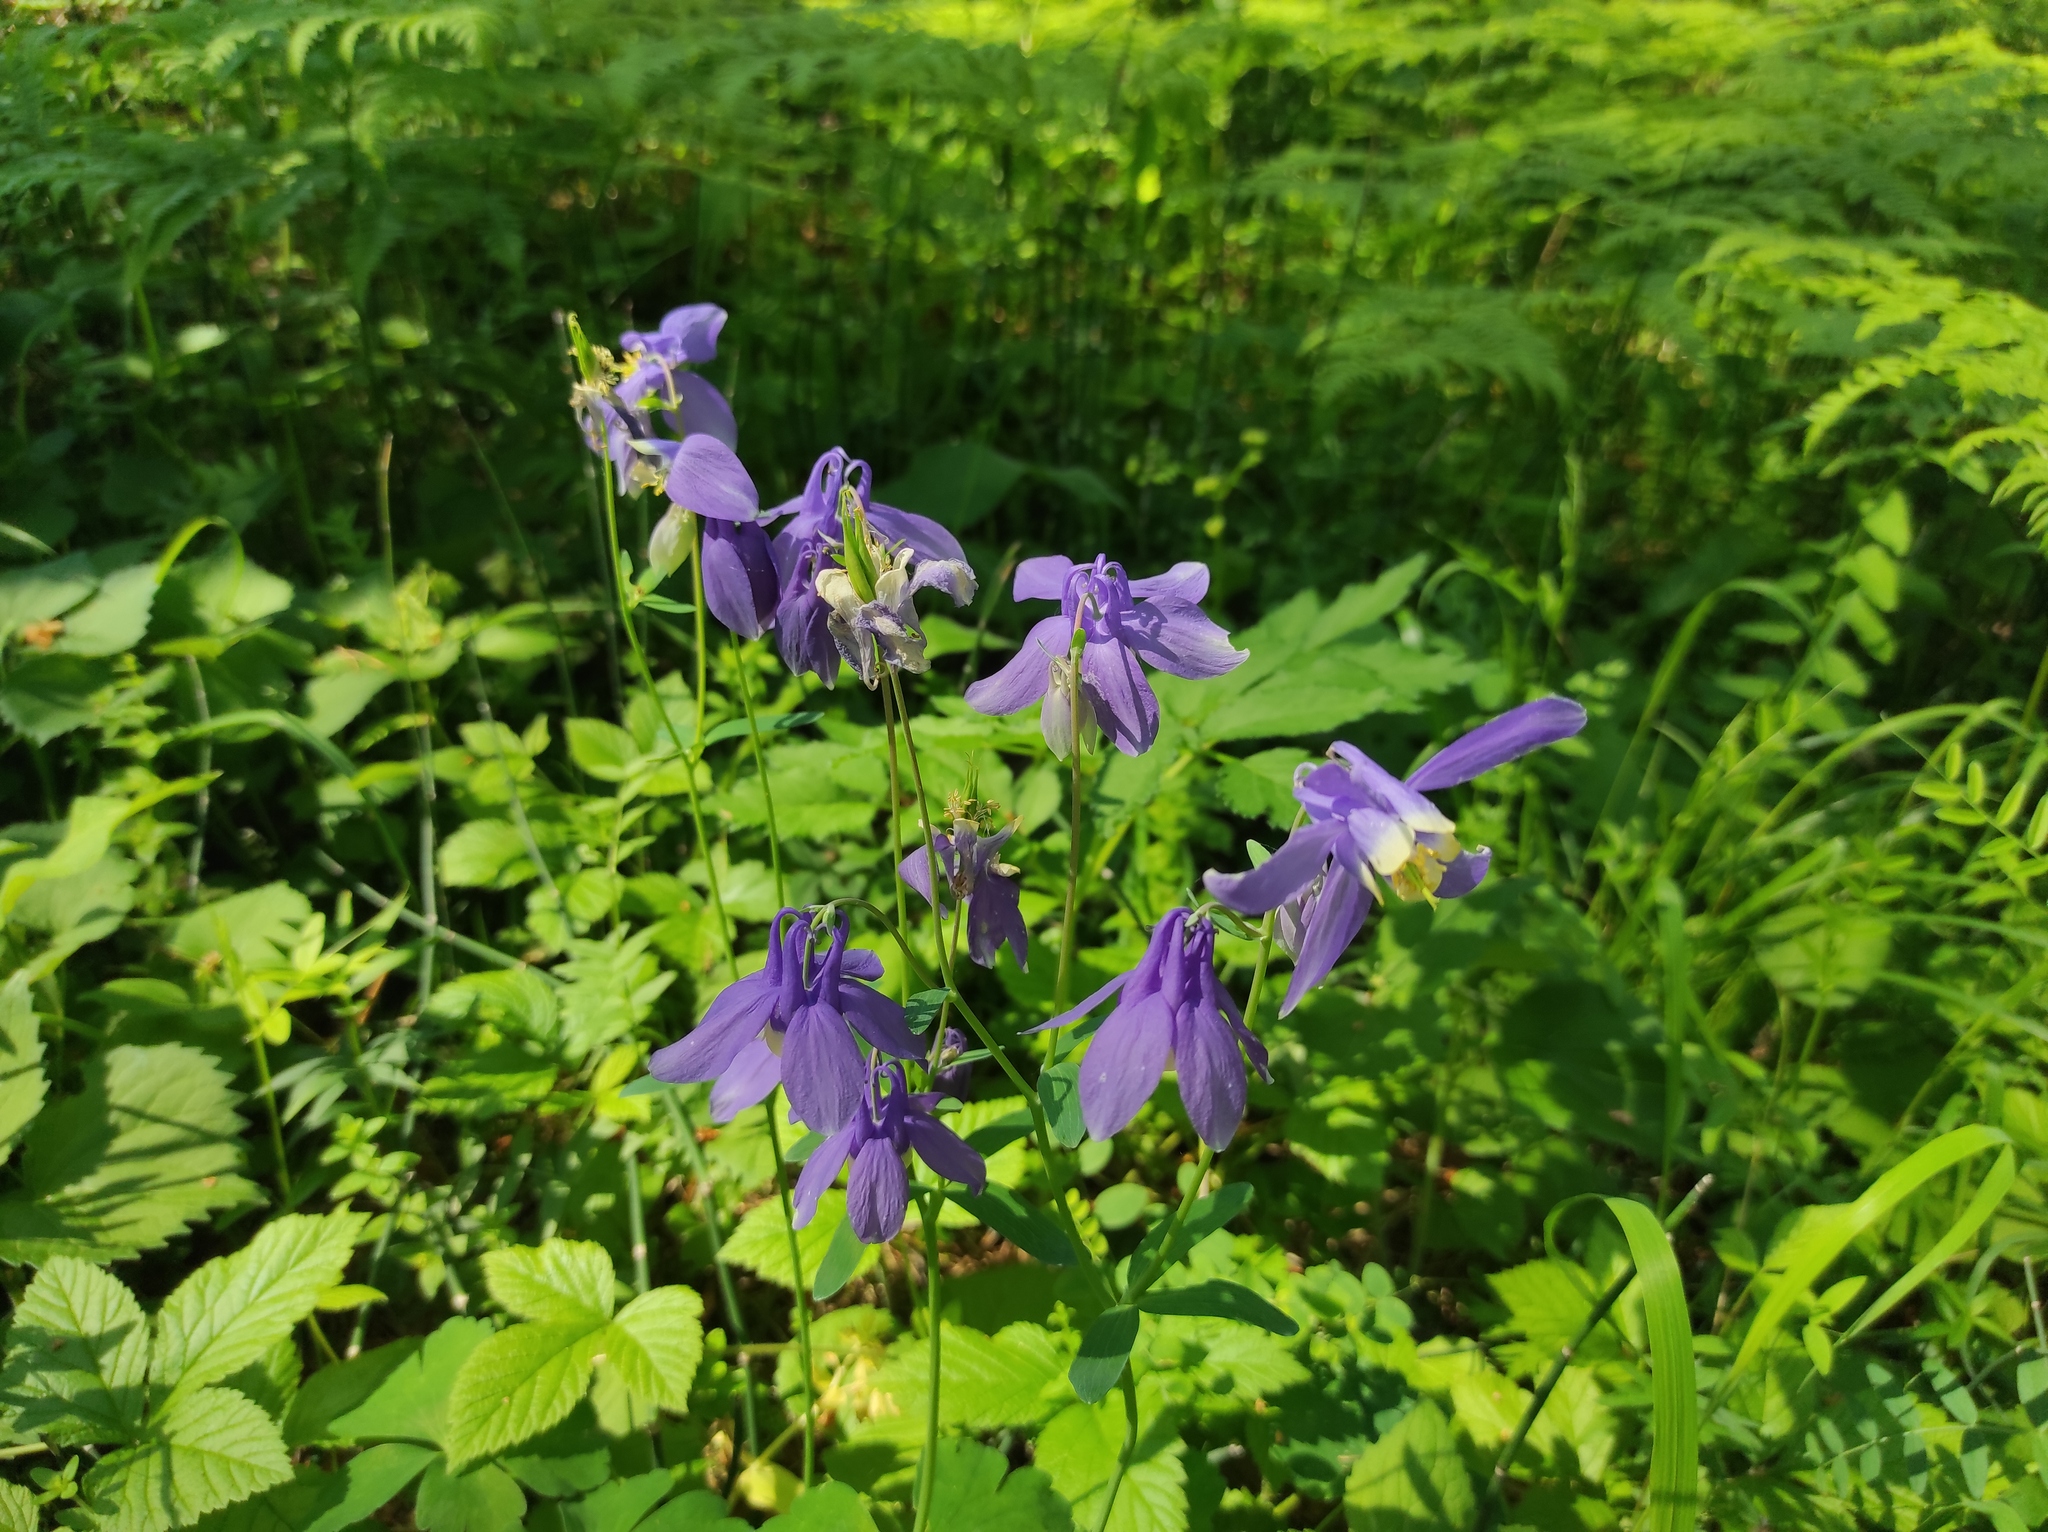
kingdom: Plantae
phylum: Tracheophyta
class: Magnoliopsida
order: Ranunculales
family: Ranunculaceae
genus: Aquilegia
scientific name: Aquilegia sibirica
